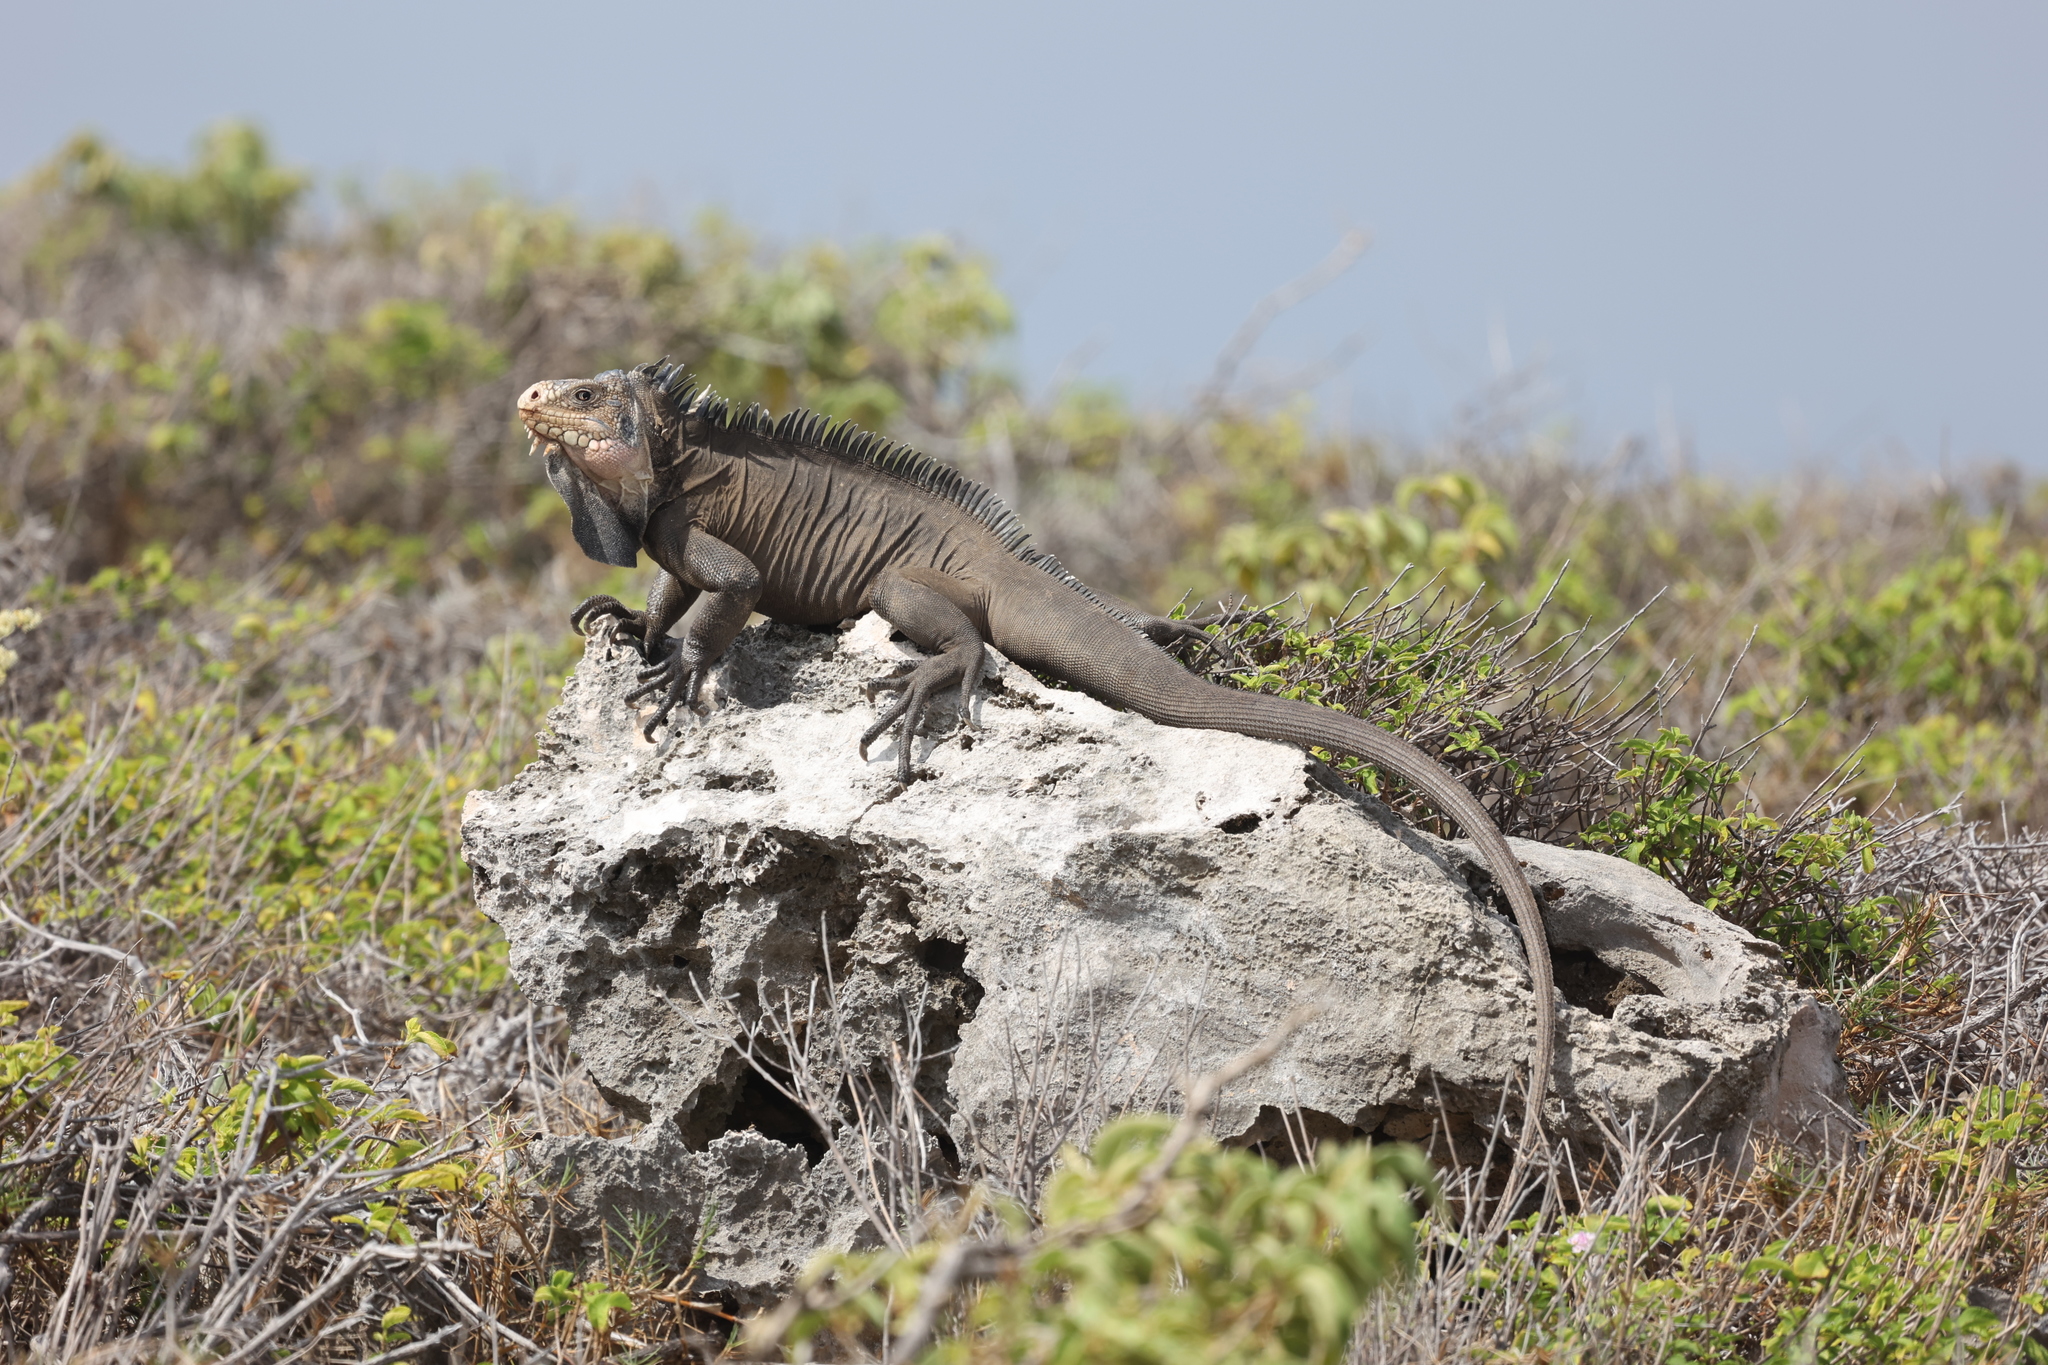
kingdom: Animalia
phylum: Chordata
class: Squamata
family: Iguanidae
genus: Iguana
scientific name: Iguana delicatissima
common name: West indian iguana
